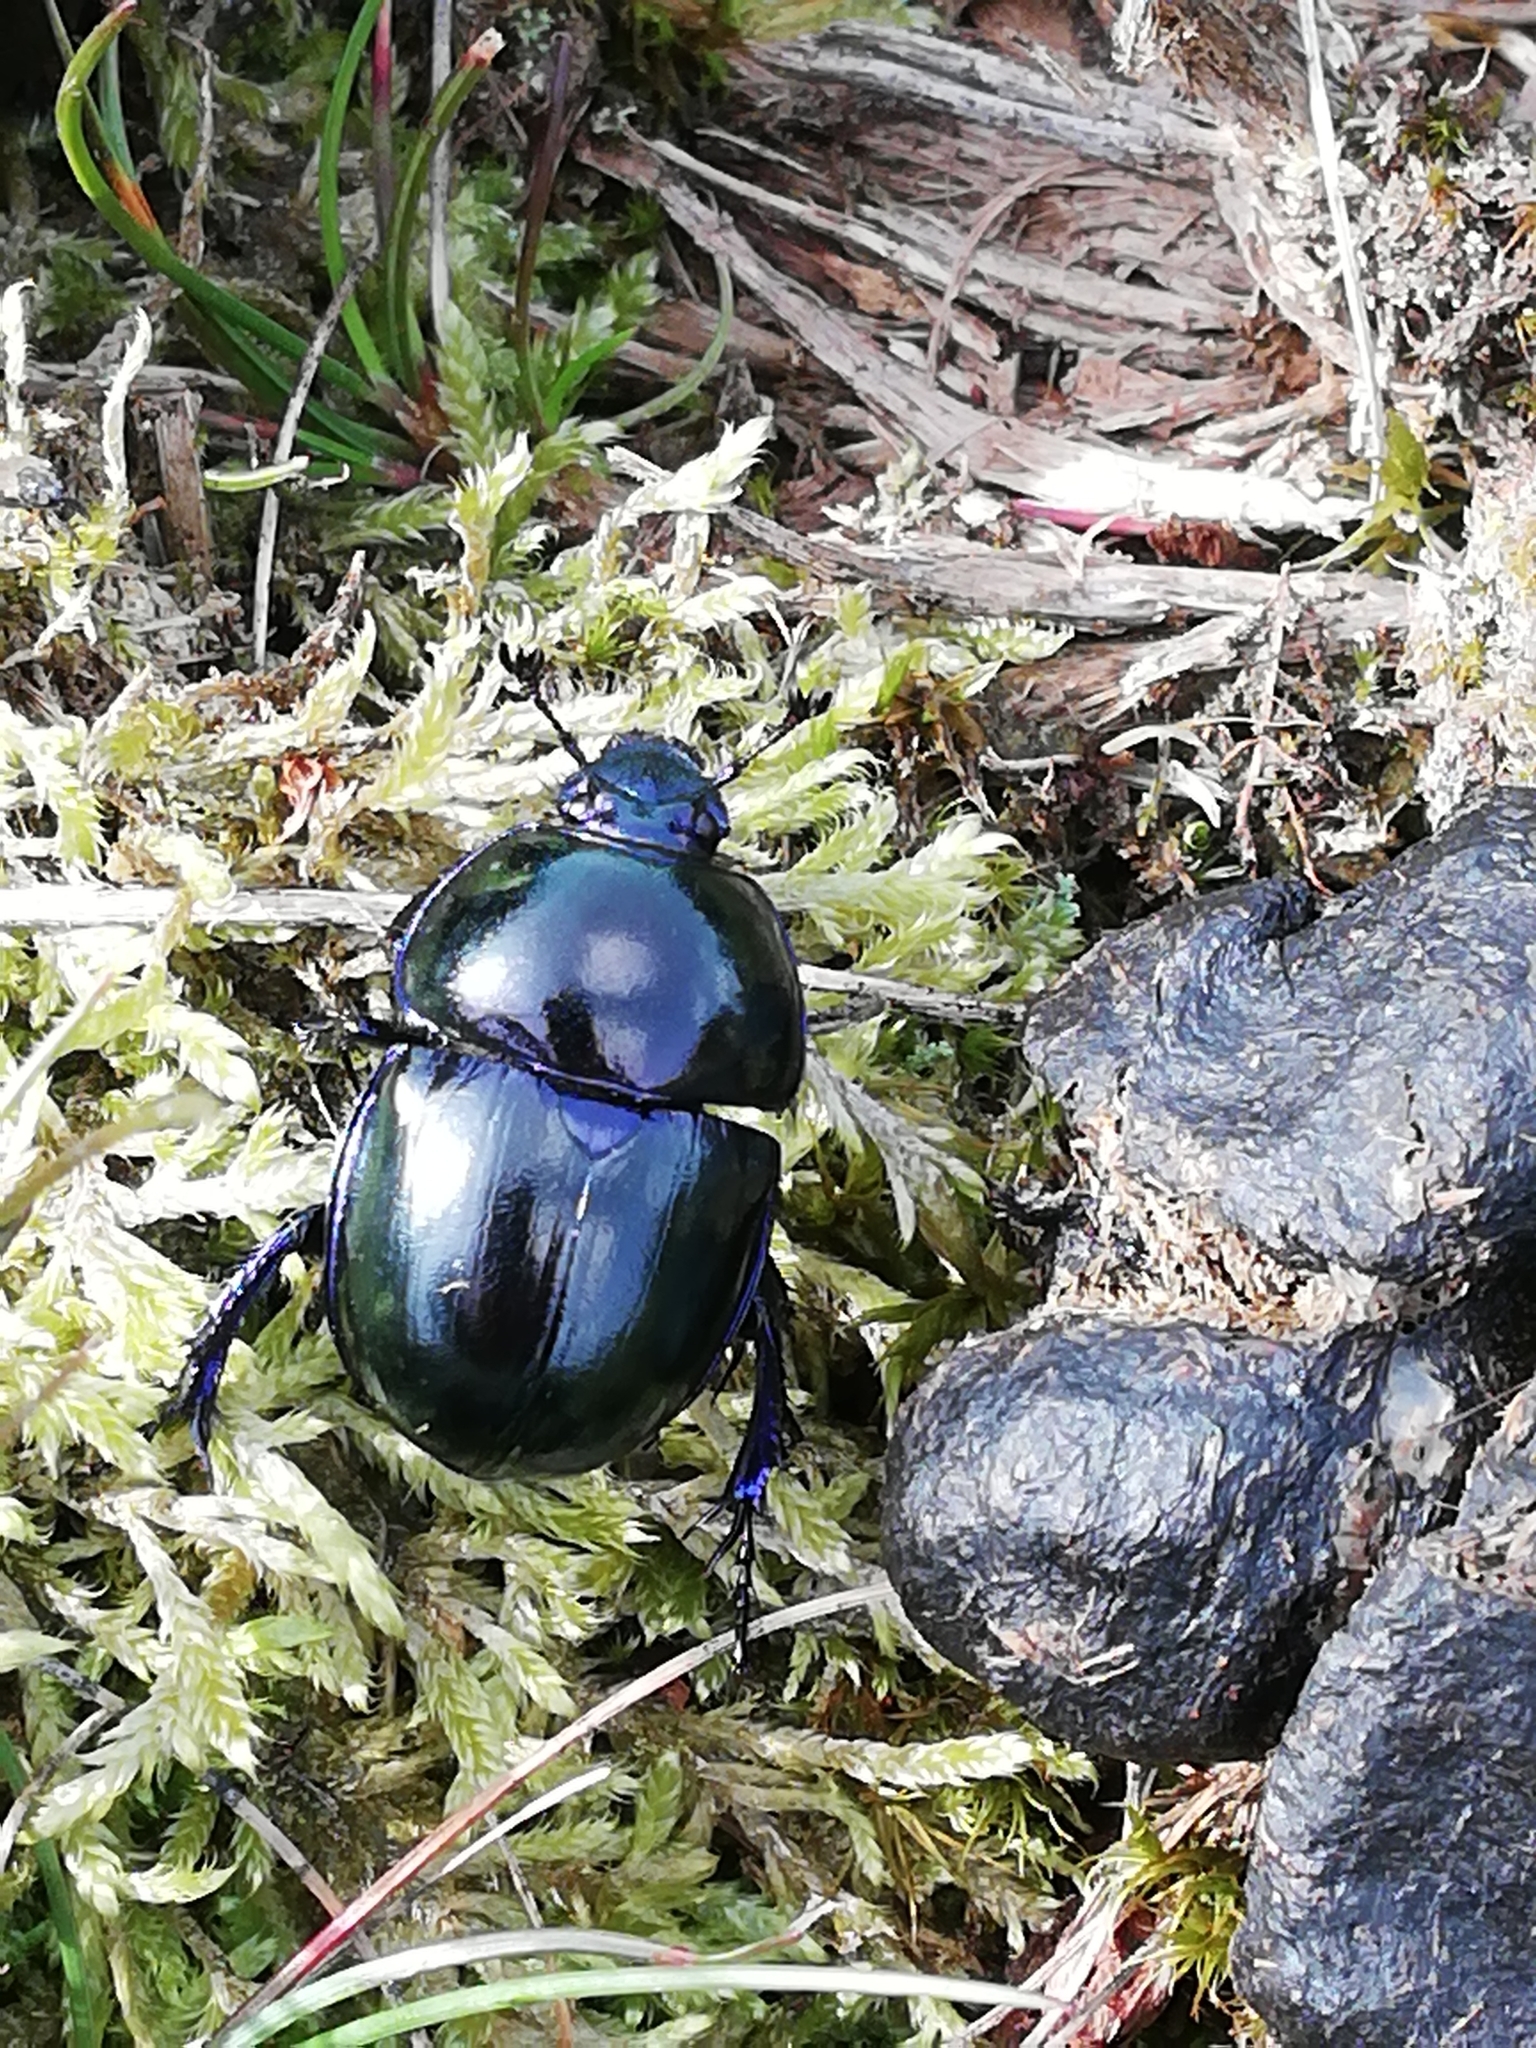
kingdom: Animalia
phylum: Arthropoda
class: Insecta
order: Coleoptera
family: Geotrupidae
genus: Trypocopris
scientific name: Trypocopris vernalis
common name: Spring dumbledor
